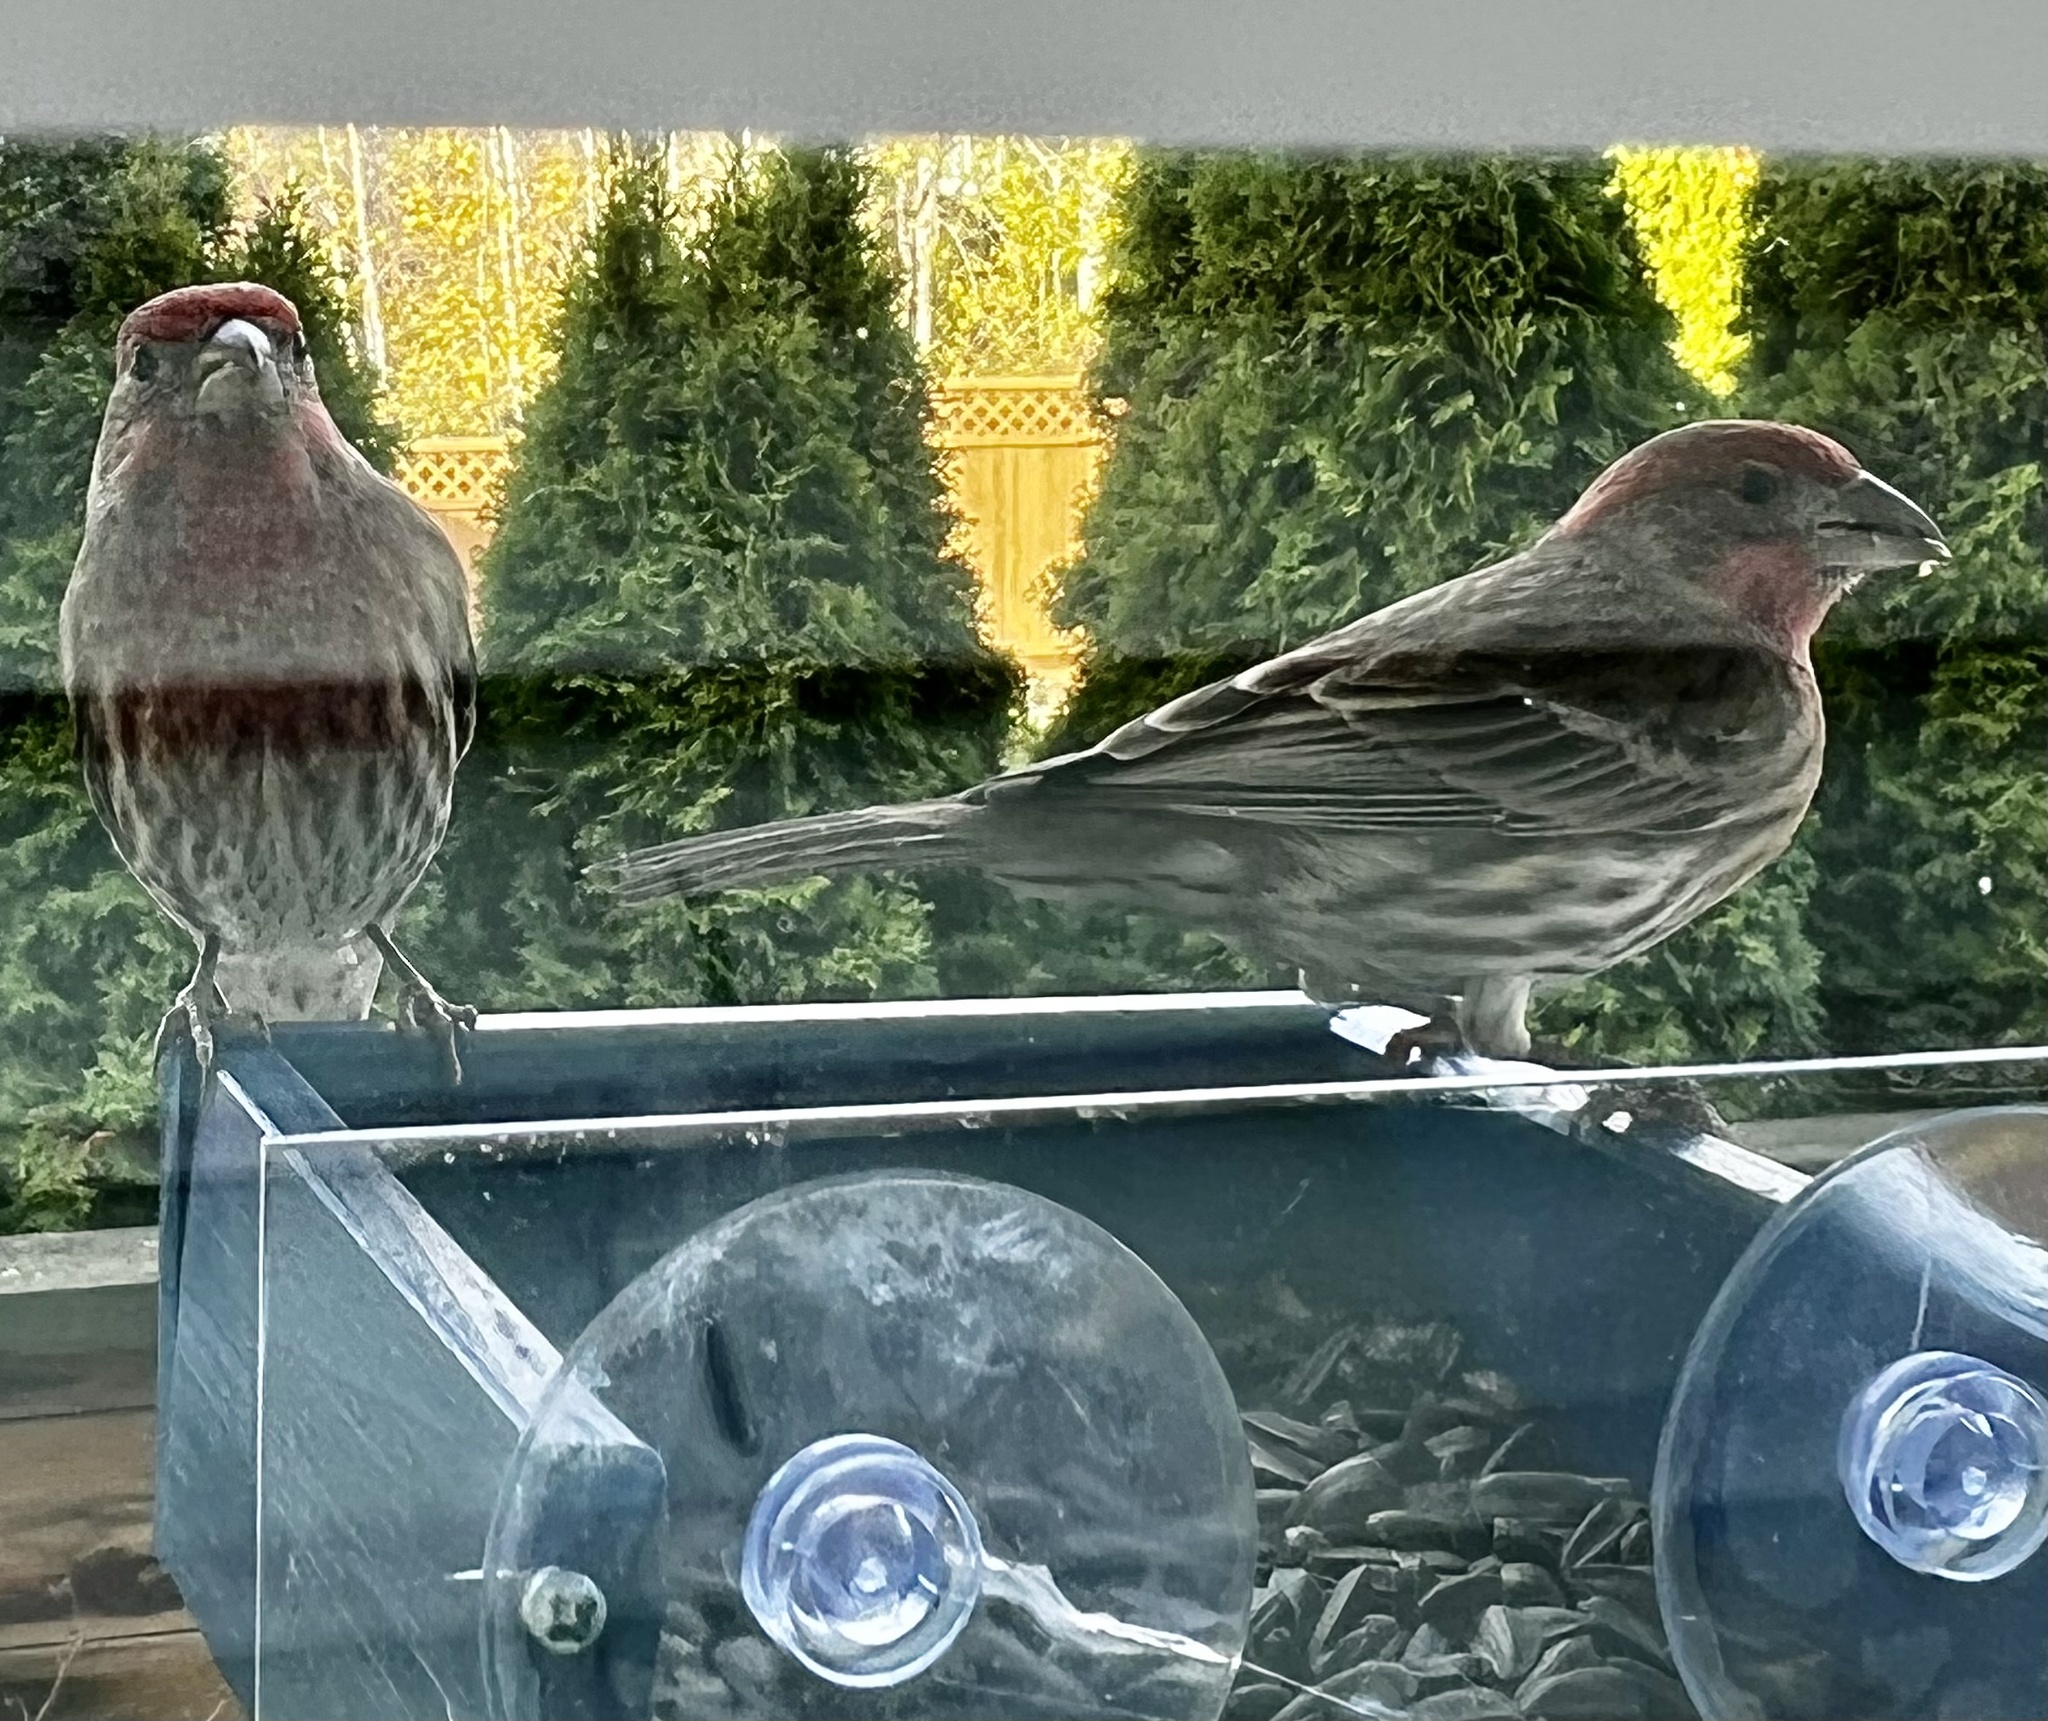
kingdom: Animalia
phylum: Chordata
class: Aves
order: Passeriformes
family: Fringillidae
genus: Haemorhous
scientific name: Haemorhous mexicanus
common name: House finch
